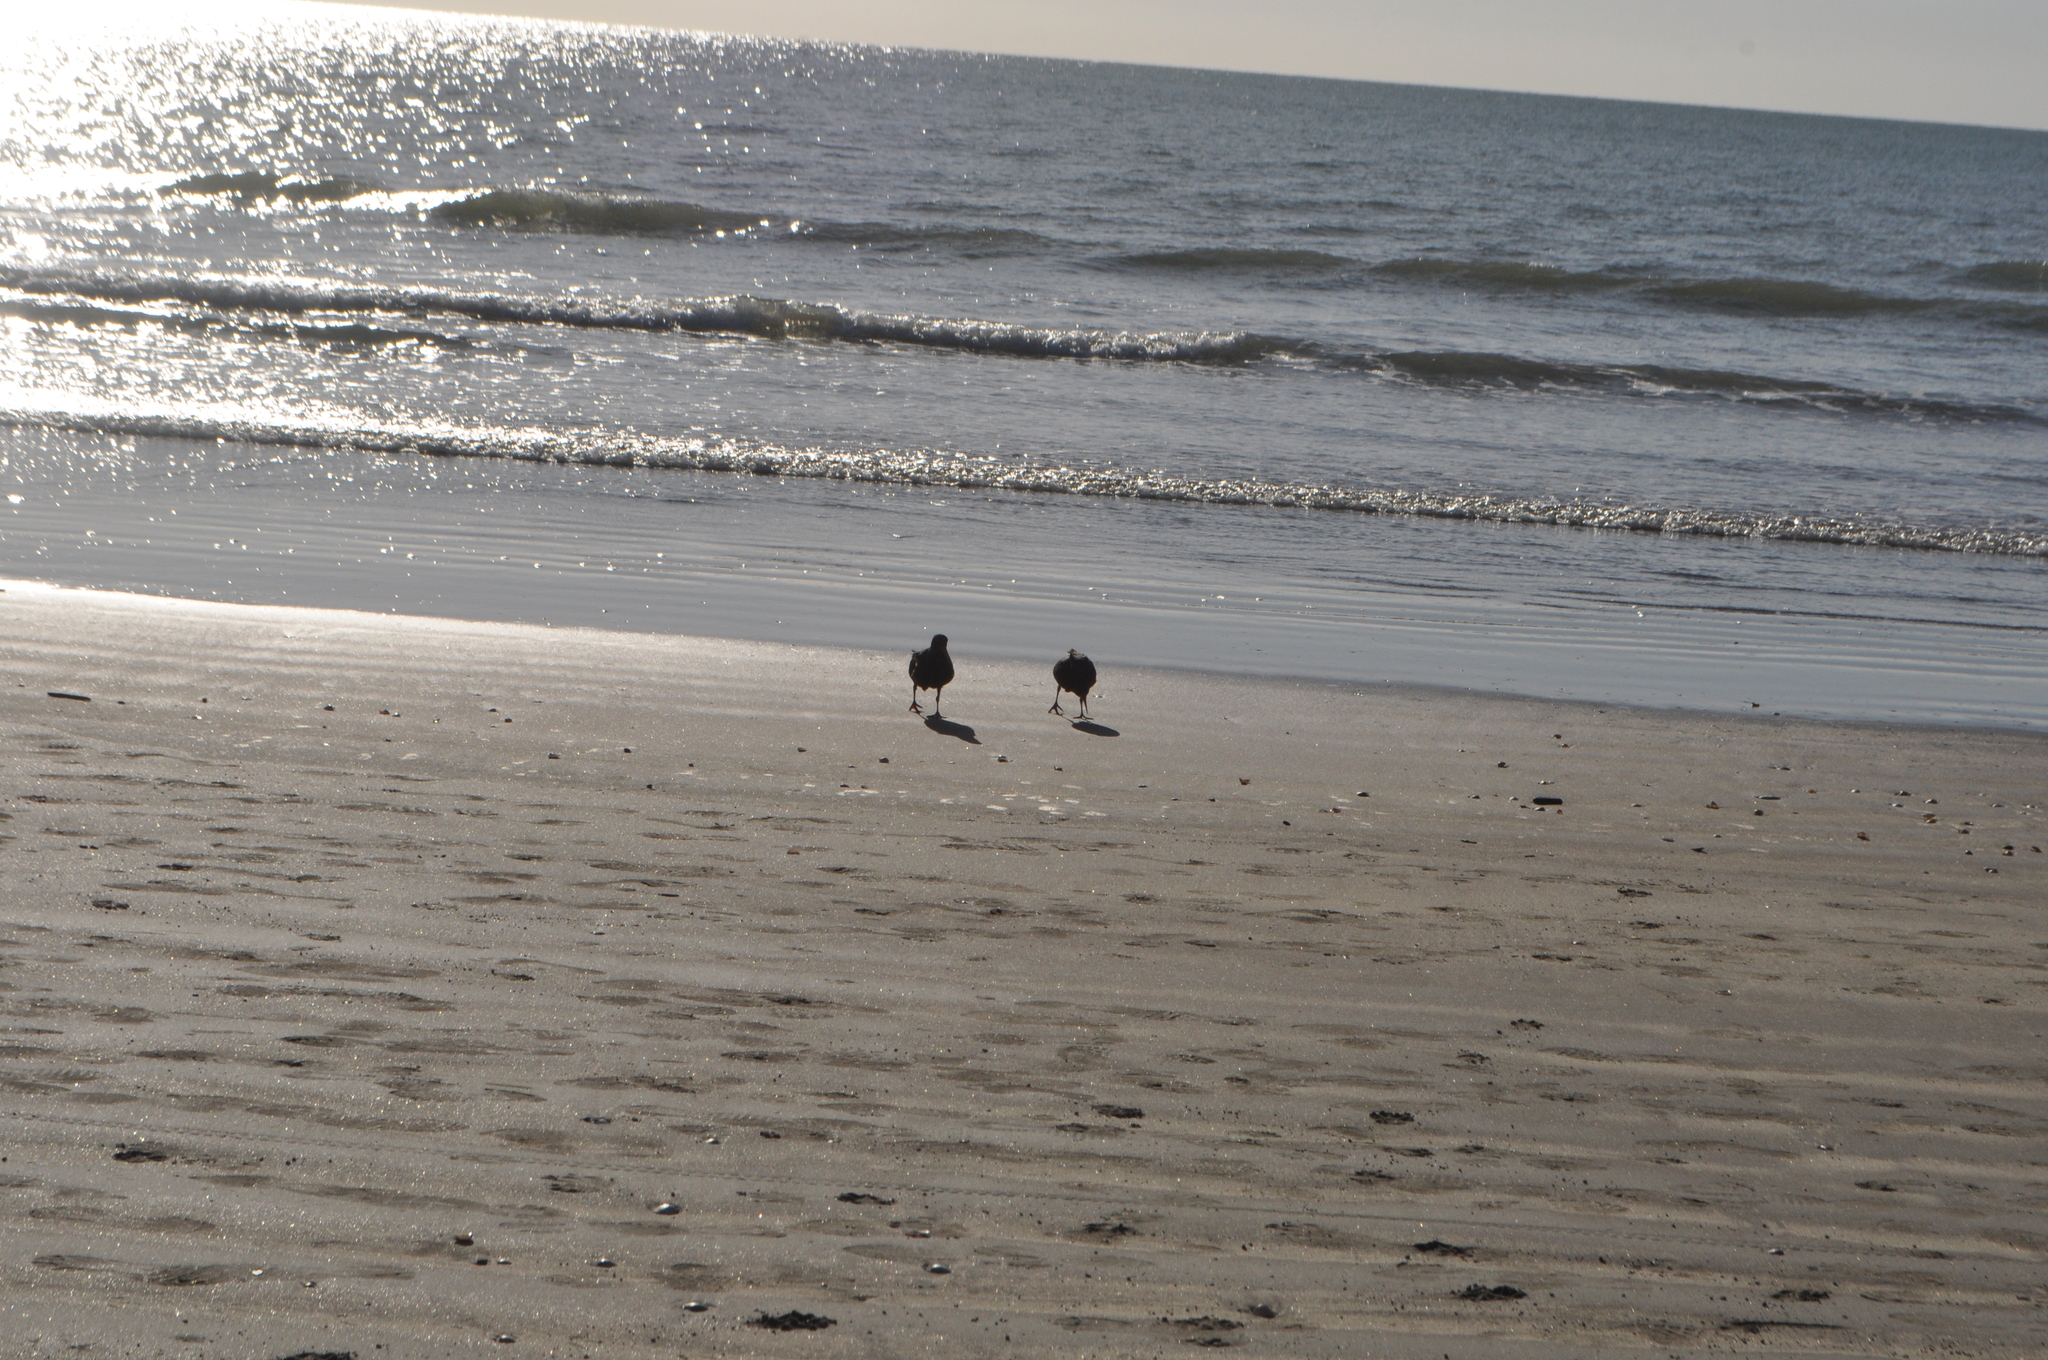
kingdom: Animalia
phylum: Chordata
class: Aves
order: Charadriiformes
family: Haematopodidae
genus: Haematopus
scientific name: Haematopus unicolor
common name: Variable oystercatcher
